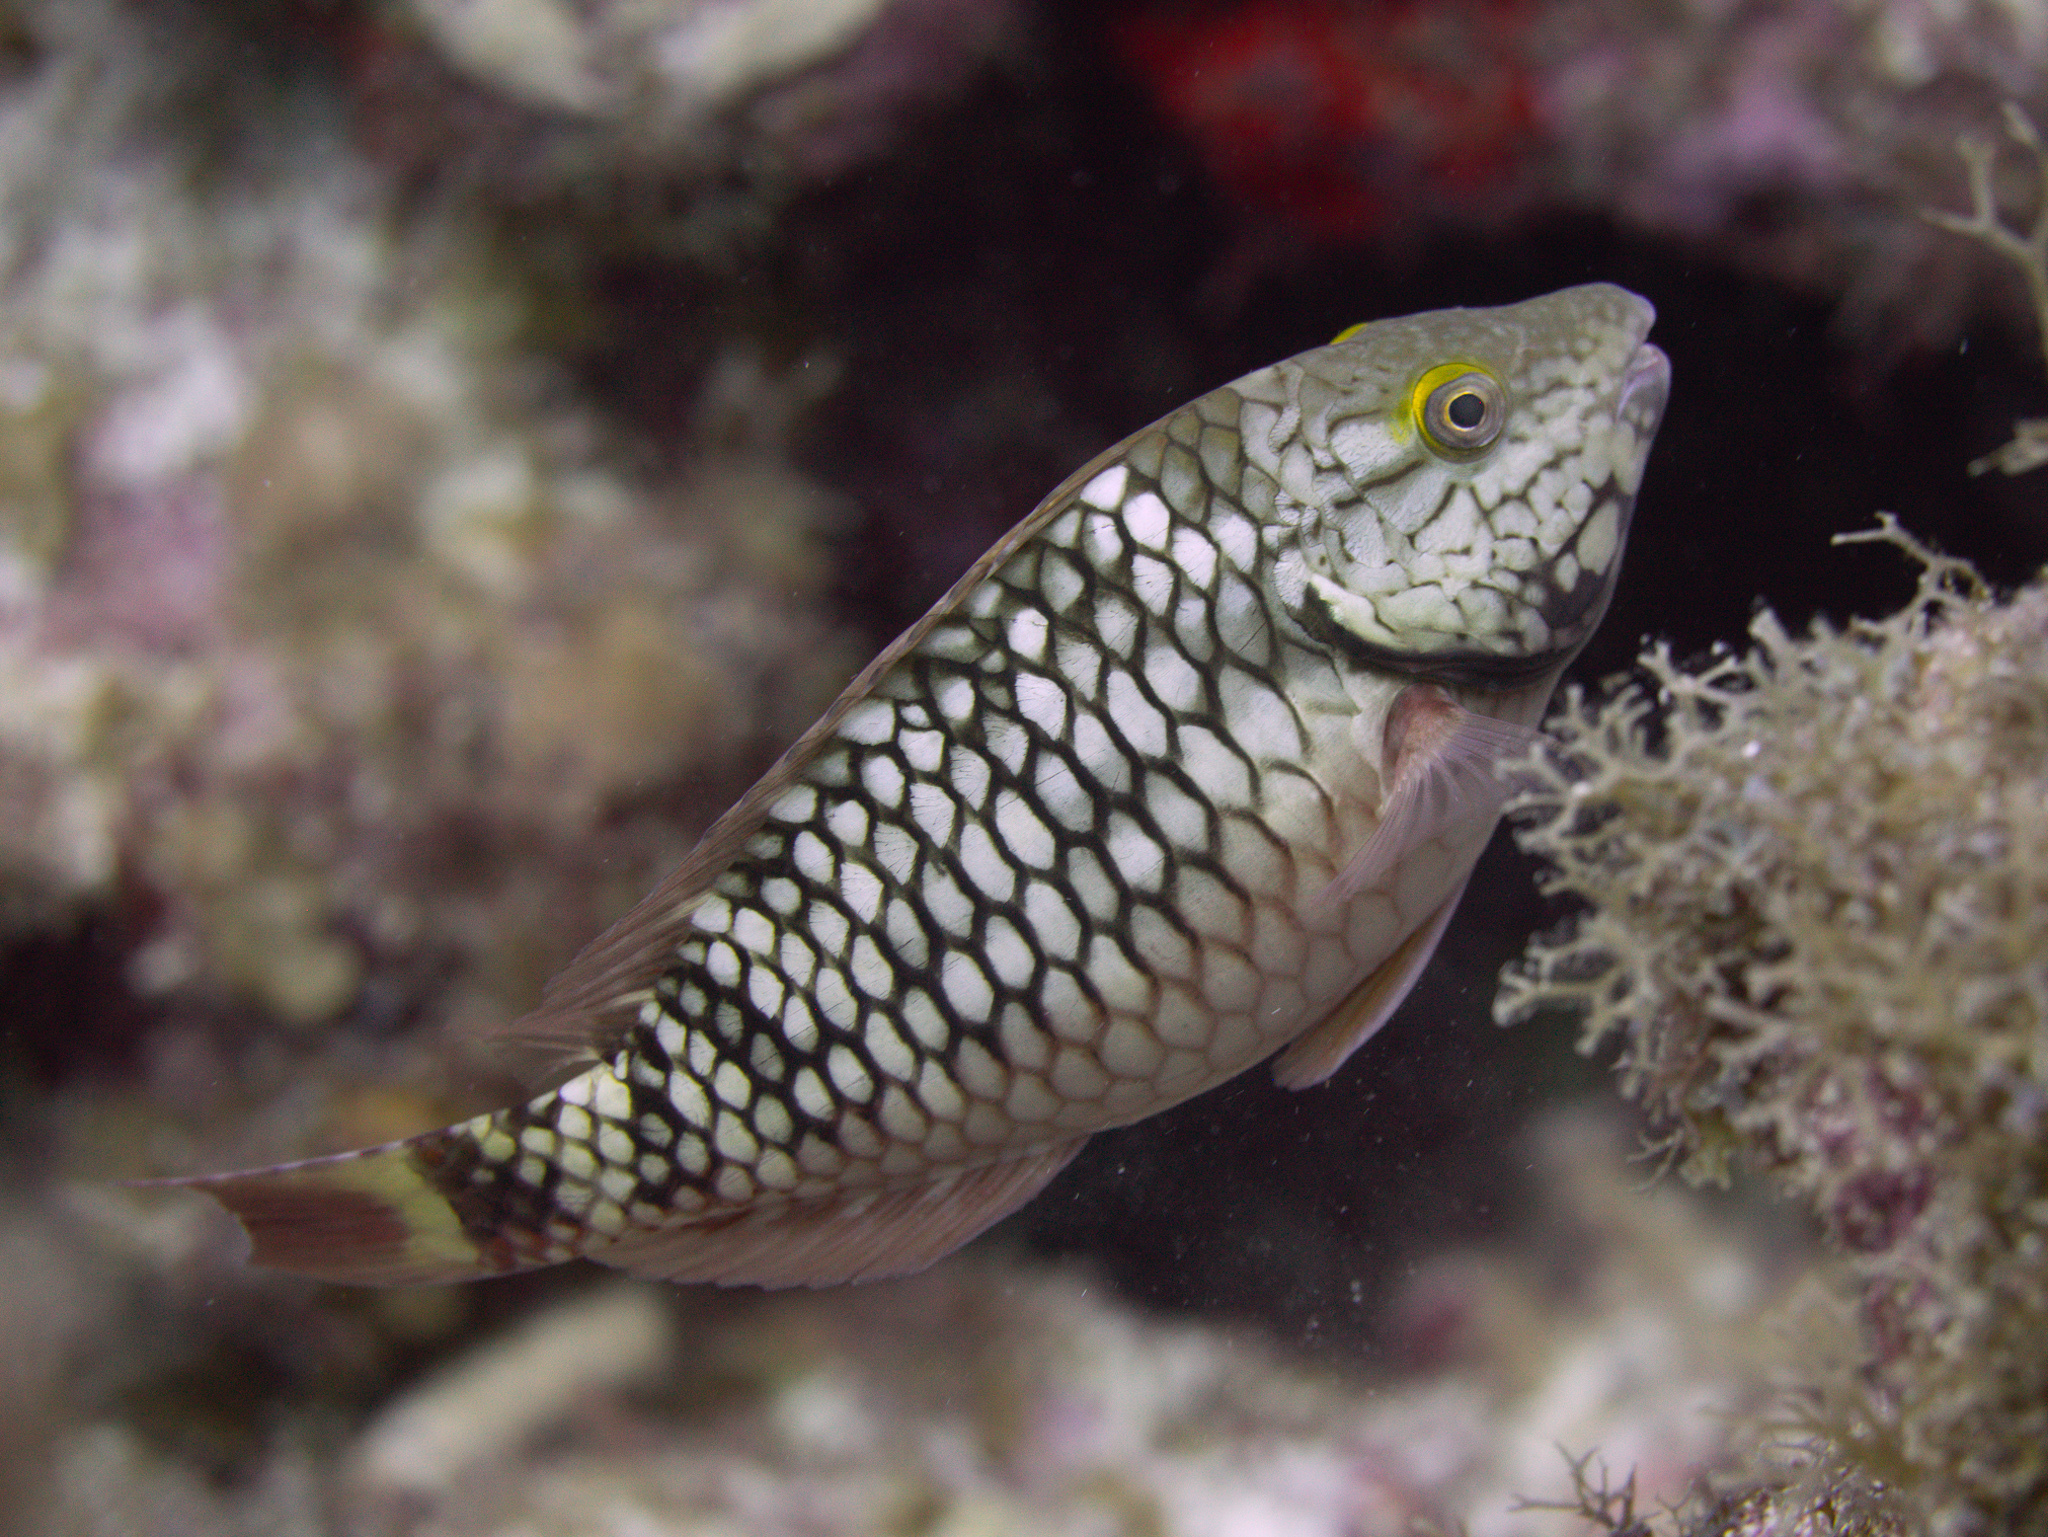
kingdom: Animalia
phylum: Chordata
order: Perciformes
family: Scaridae
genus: Sparisoma
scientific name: Sparisoma viride
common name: Stoplight parrotfish
